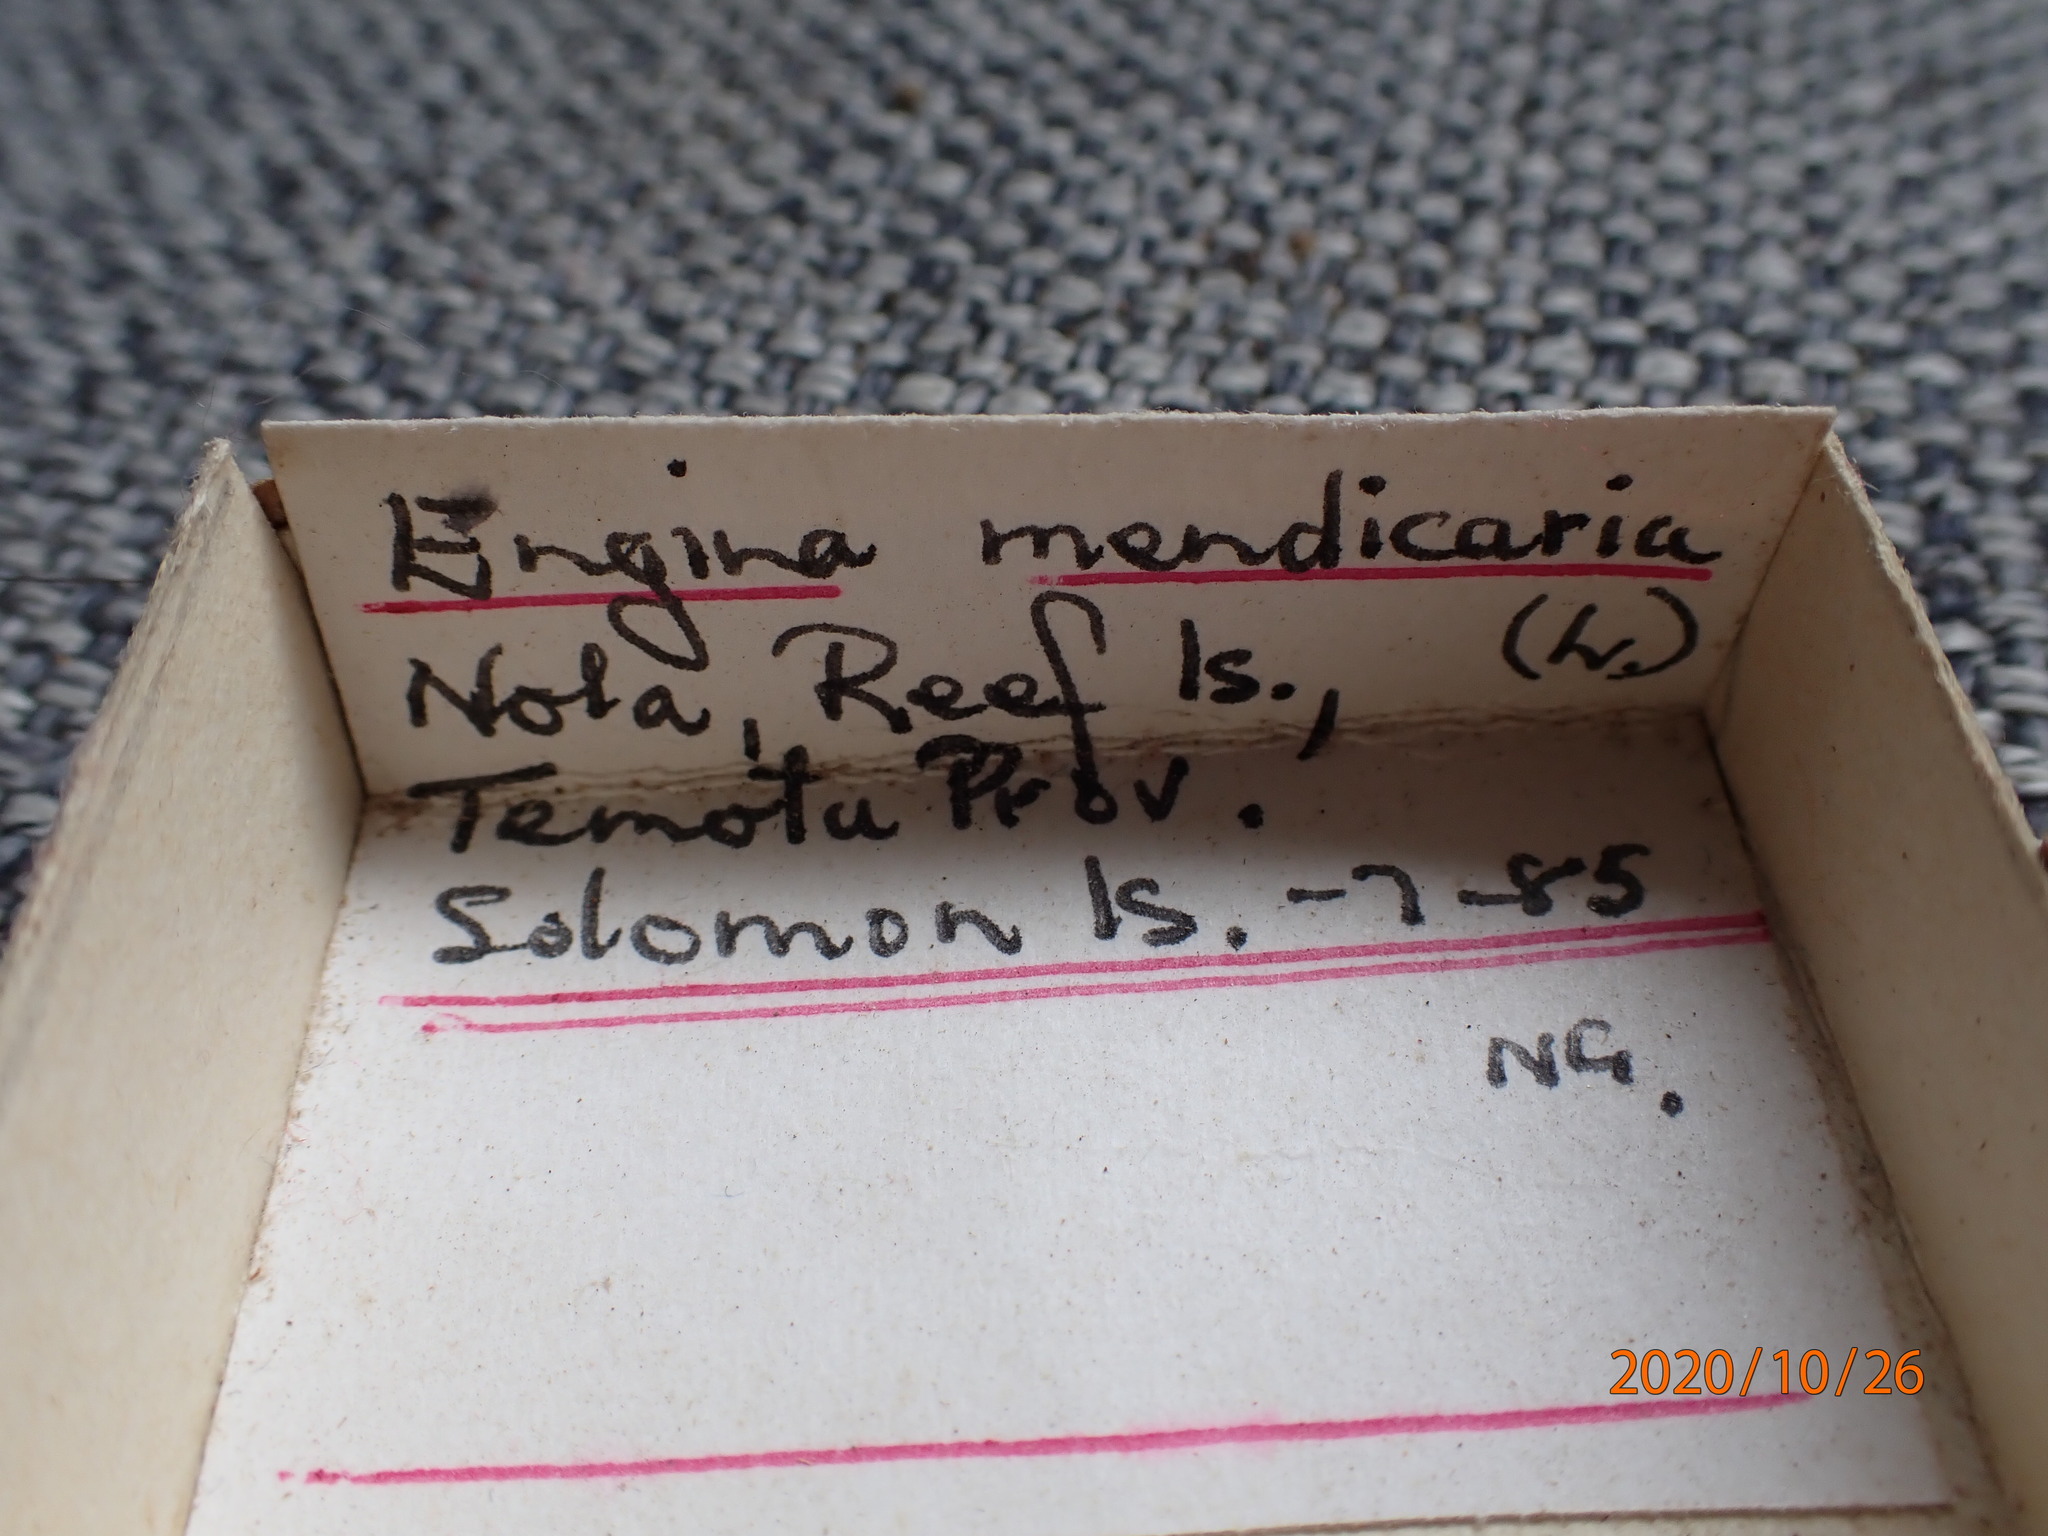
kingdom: Animalia
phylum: Mollusca
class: Gastropoda
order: Neogastropoda
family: Pisaniidae
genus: Engina
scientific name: Engina mendicaria
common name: Bumble bee snail
